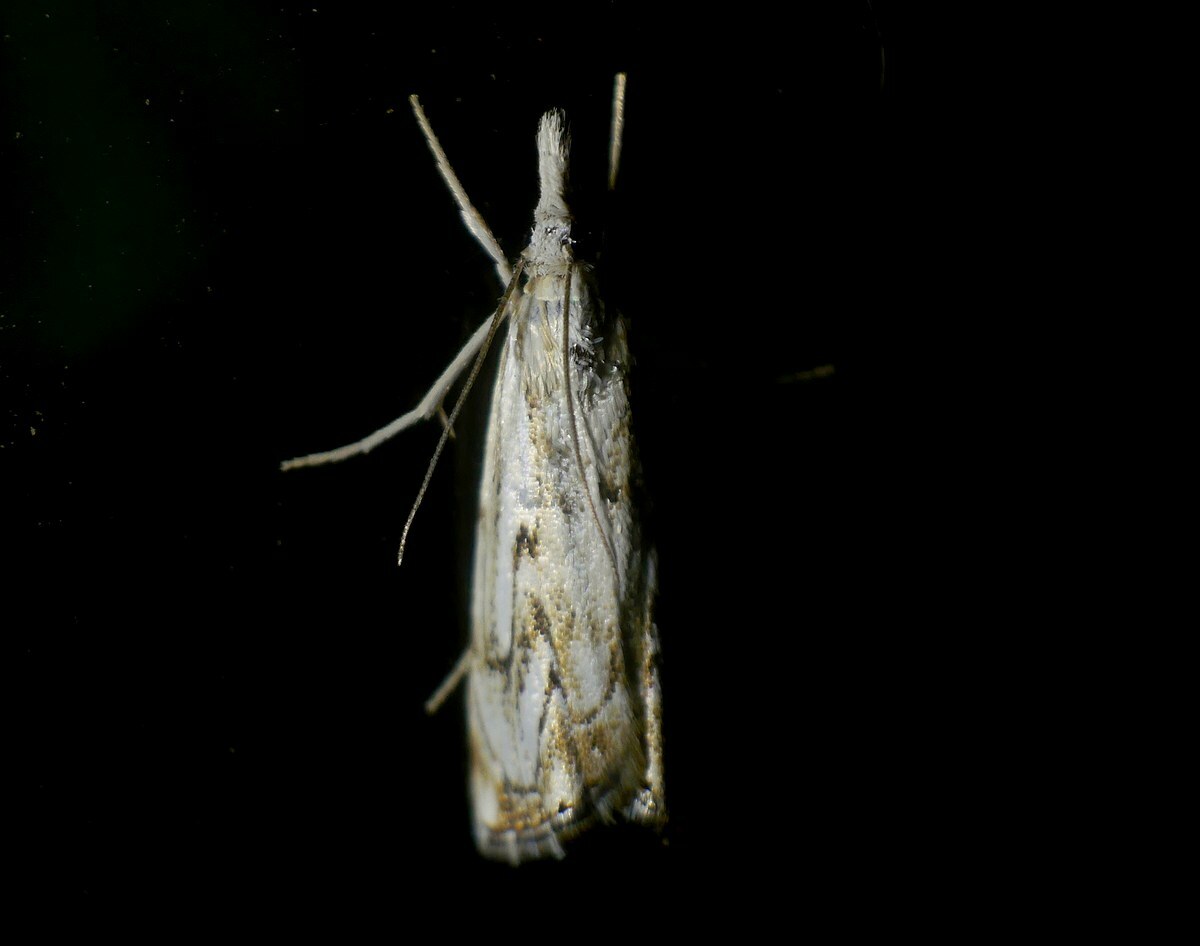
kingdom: Animalia
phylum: Arthropoda
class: Insecta
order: Lepidoptera
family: Crambidae
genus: Catoptria
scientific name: Catoptria falsella
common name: Chequered grass-veneer
